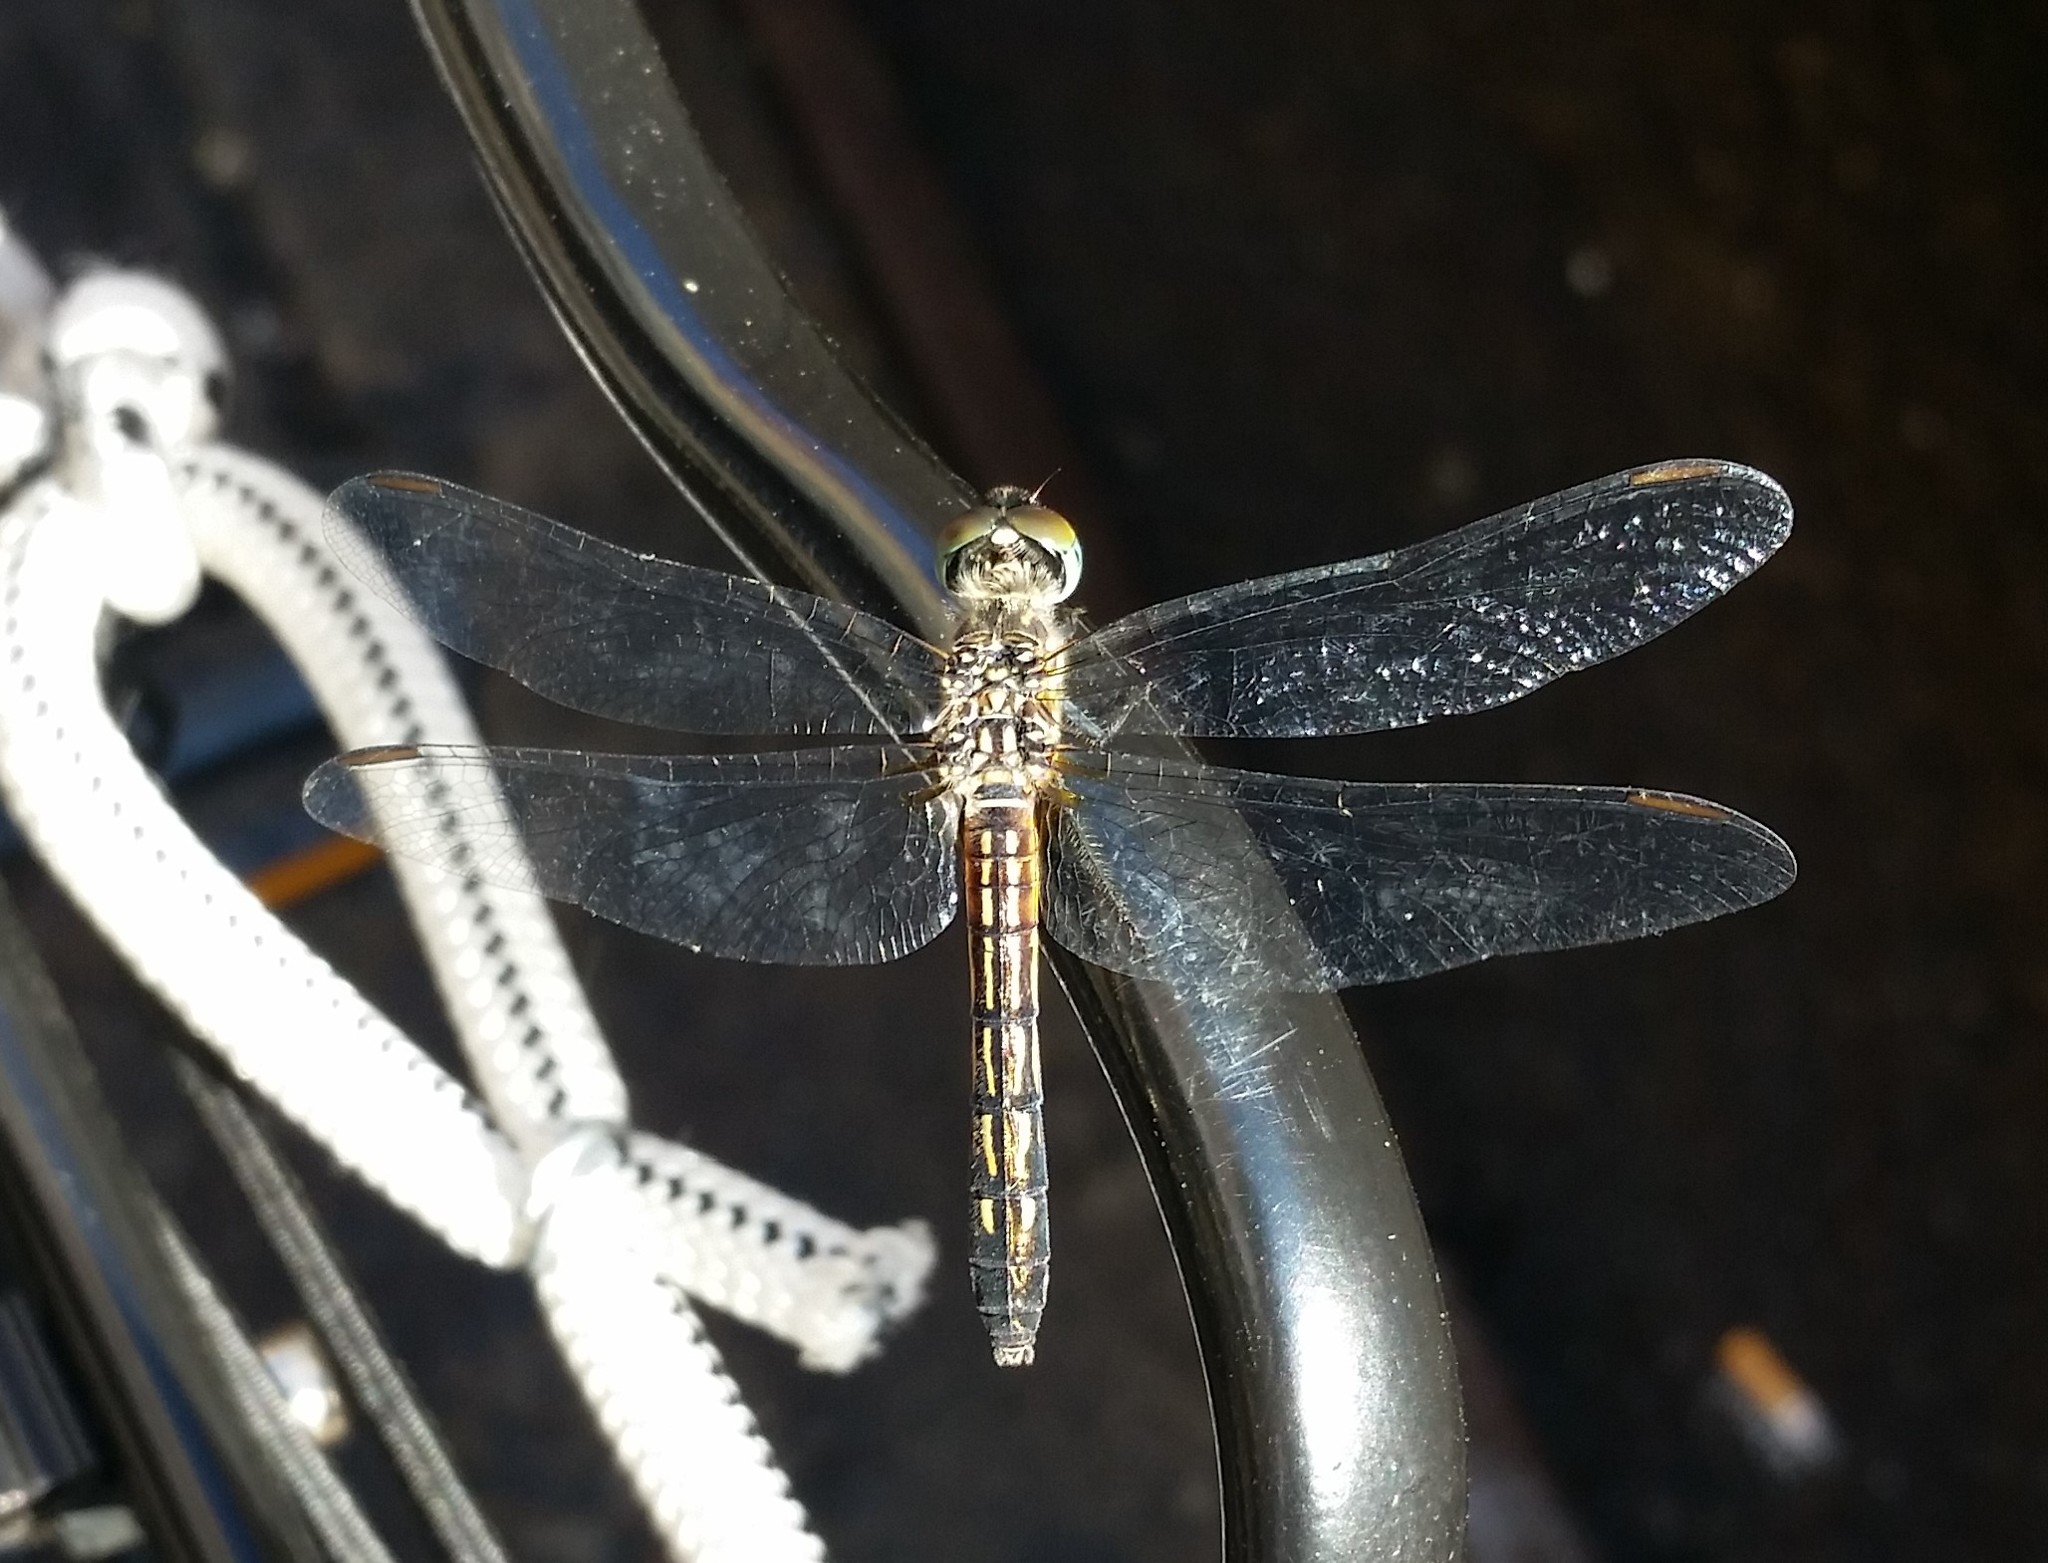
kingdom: Animalia
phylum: Arthropoda
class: Insecta
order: Odonata
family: Libellulidae
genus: Pachydiplax
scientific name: Pachydiplax longipennis
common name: Blue dasher
